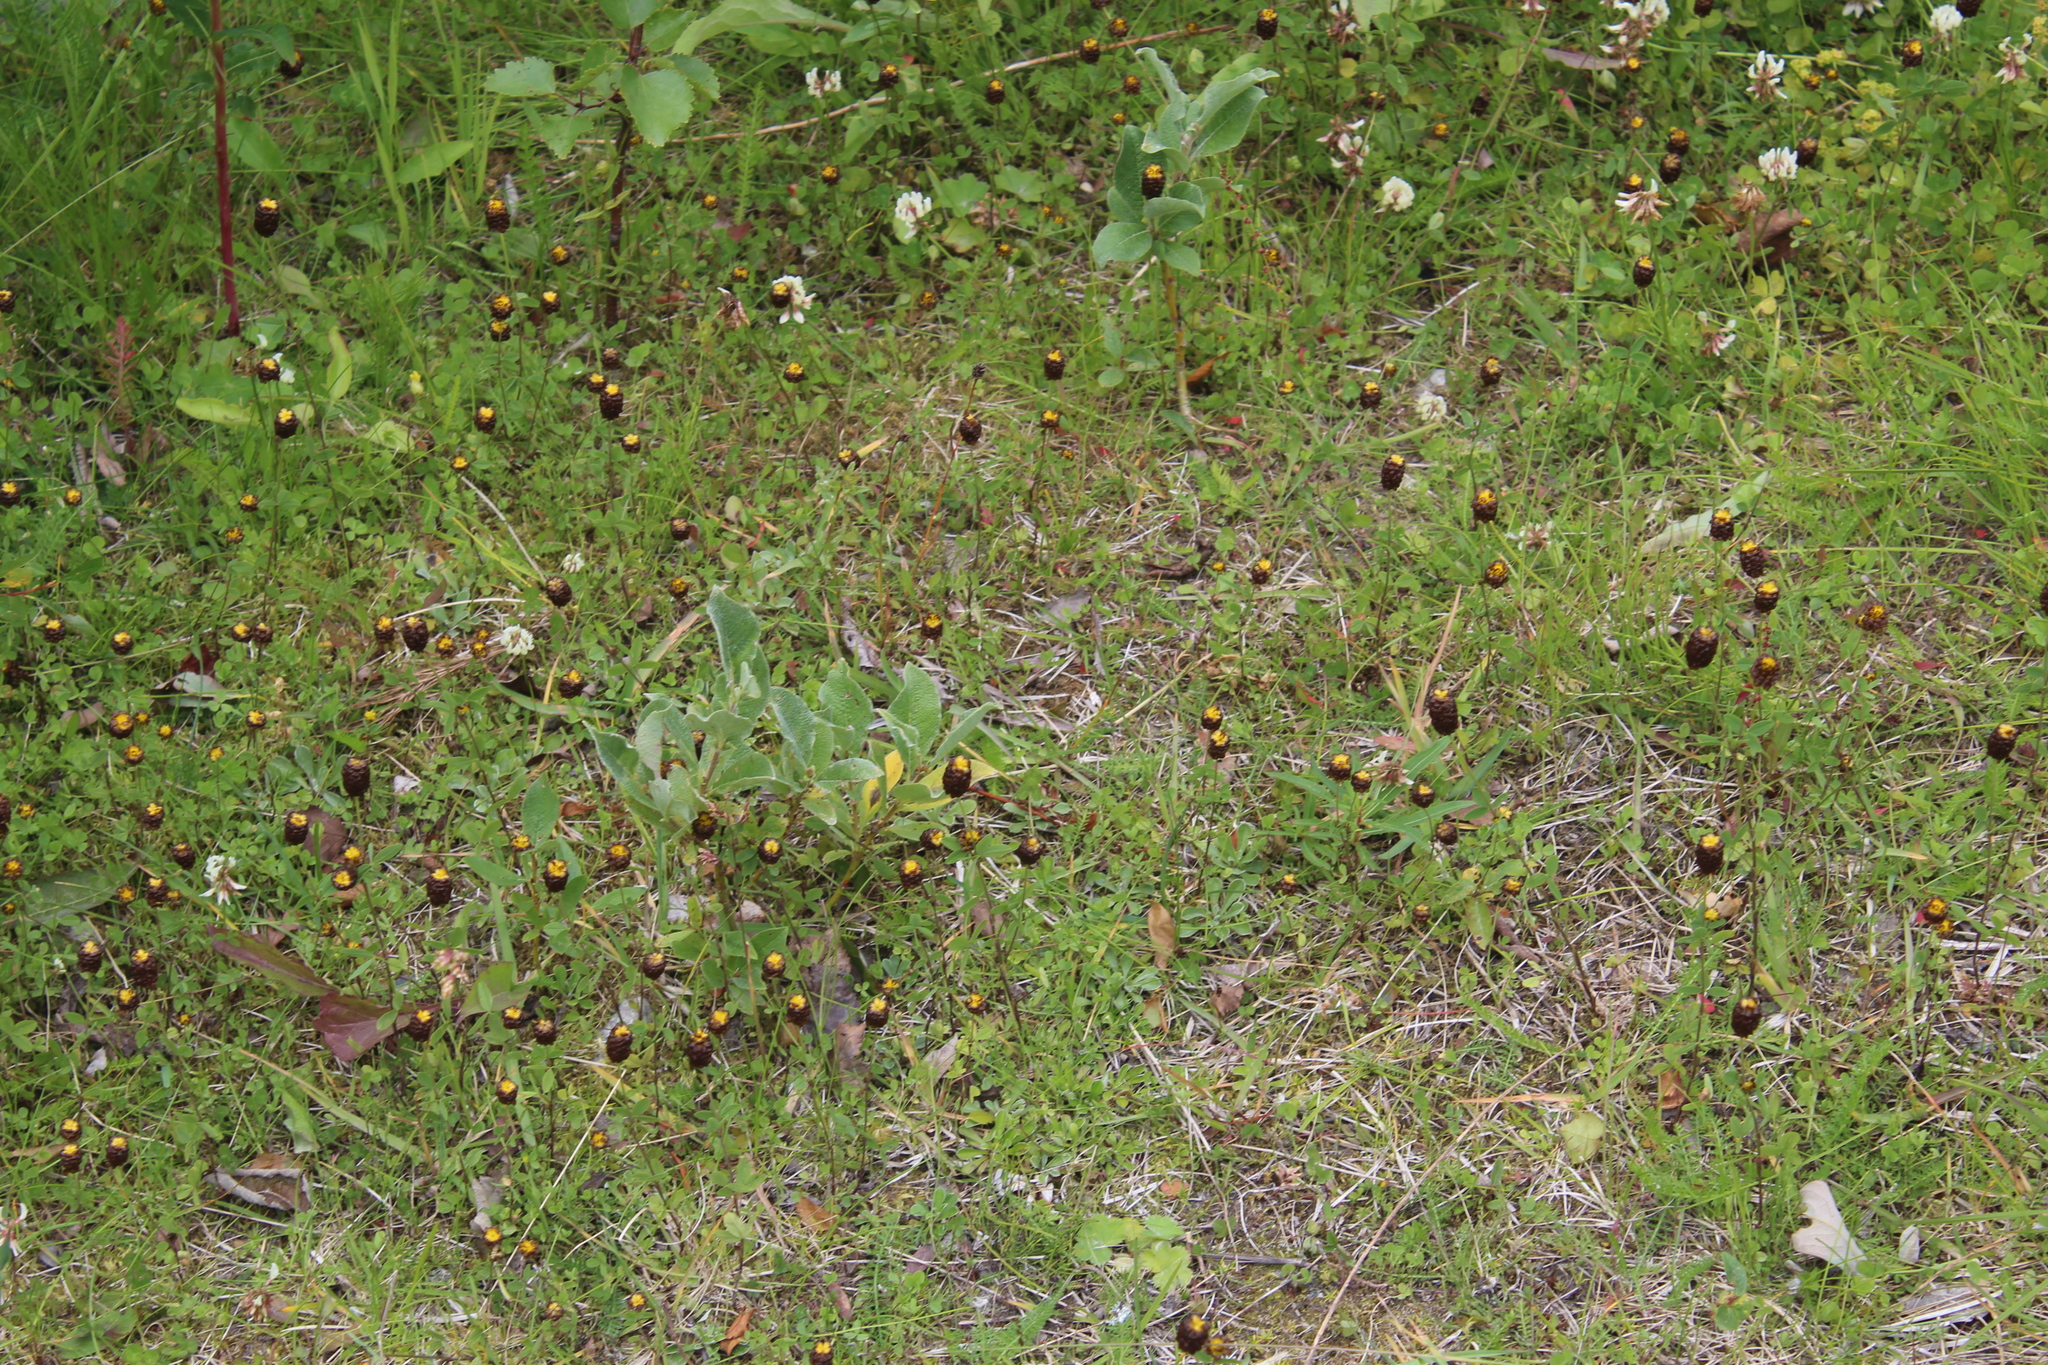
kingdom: Plantae
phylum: Tracheophyta
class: Magnoliopsida
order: Fabales
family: Fabaceae
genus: Trifolium
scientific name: Trifolium spadiceum
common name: Brown moor clover
